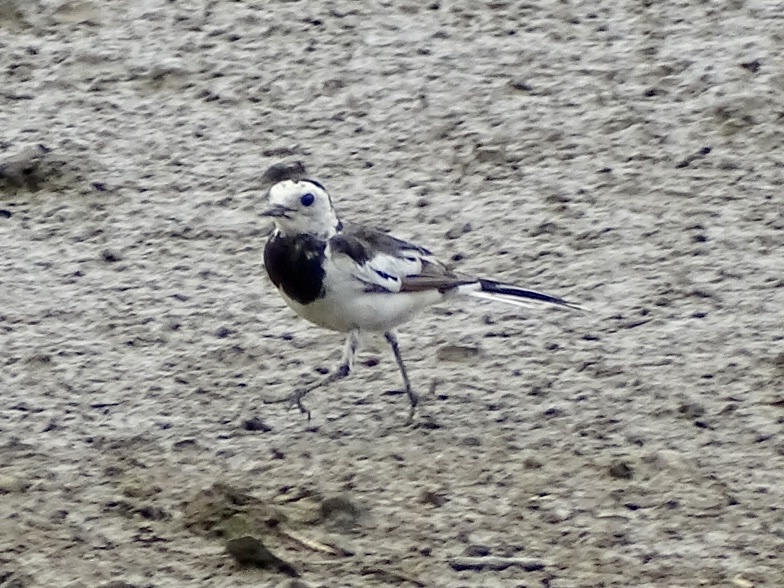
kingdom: Animalia
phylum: Chordata
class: Aves
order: Passeriformes
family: Motacillidae
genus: Motacilla
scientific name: Motacilla alba
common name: White wagtail
